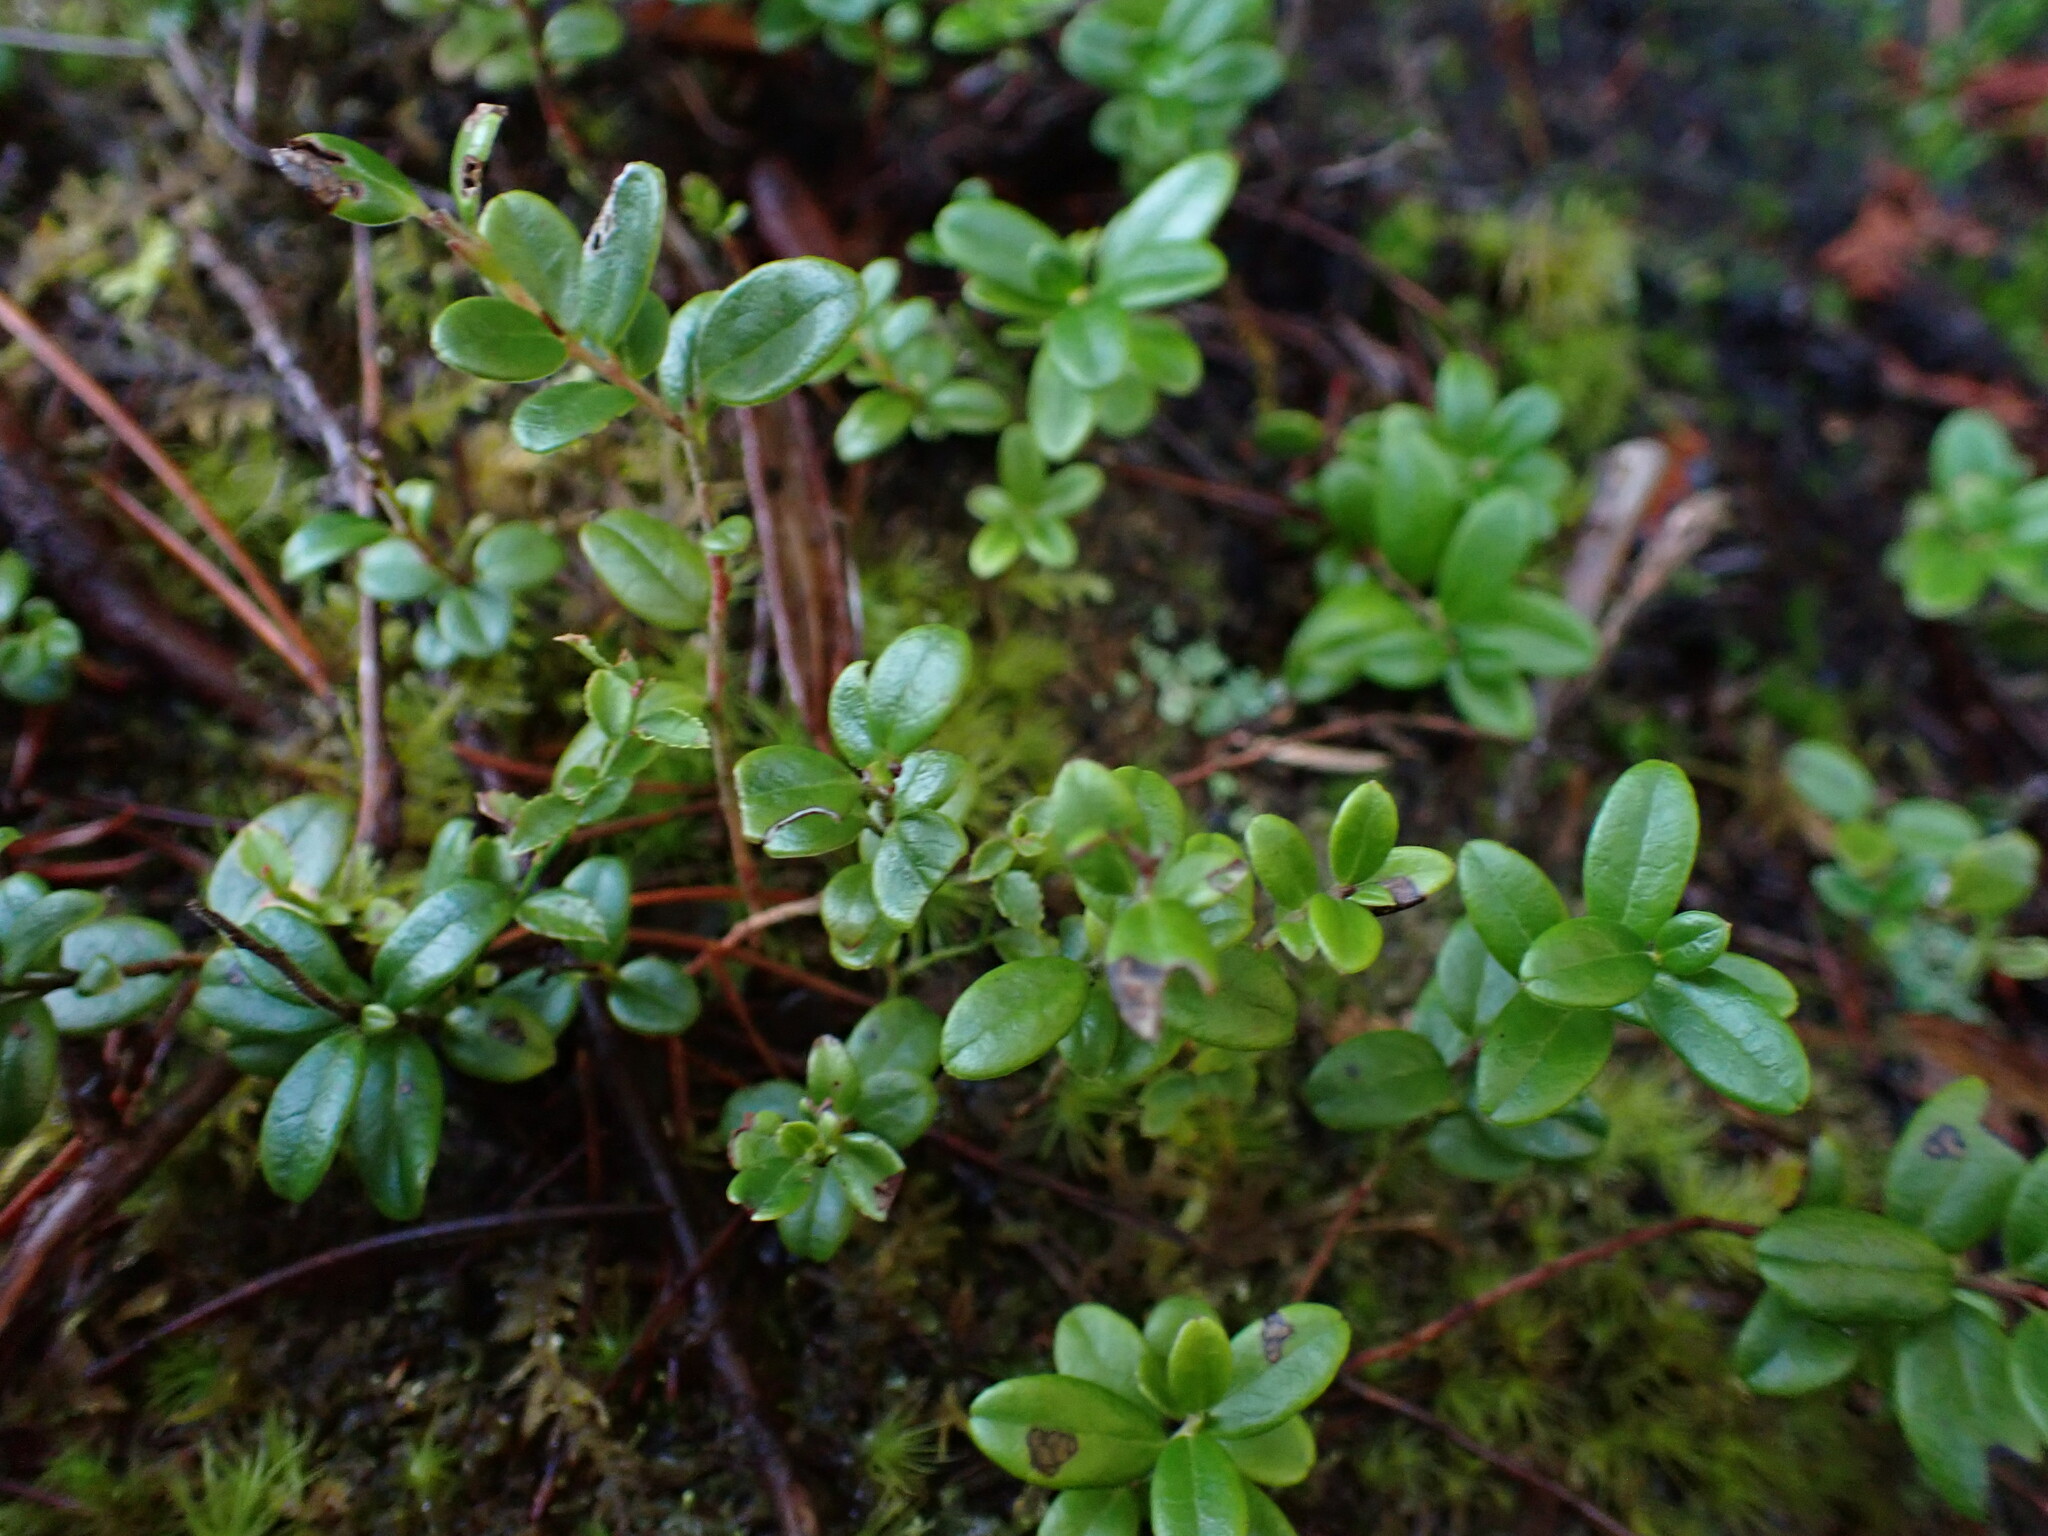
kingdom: Plantae
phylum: Tracheophyta
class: Magnoliopsida
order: Ericales
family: Ericaceae
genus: Vaccinium
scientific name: Vaccinium vitis-idaea
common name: Cowberry
